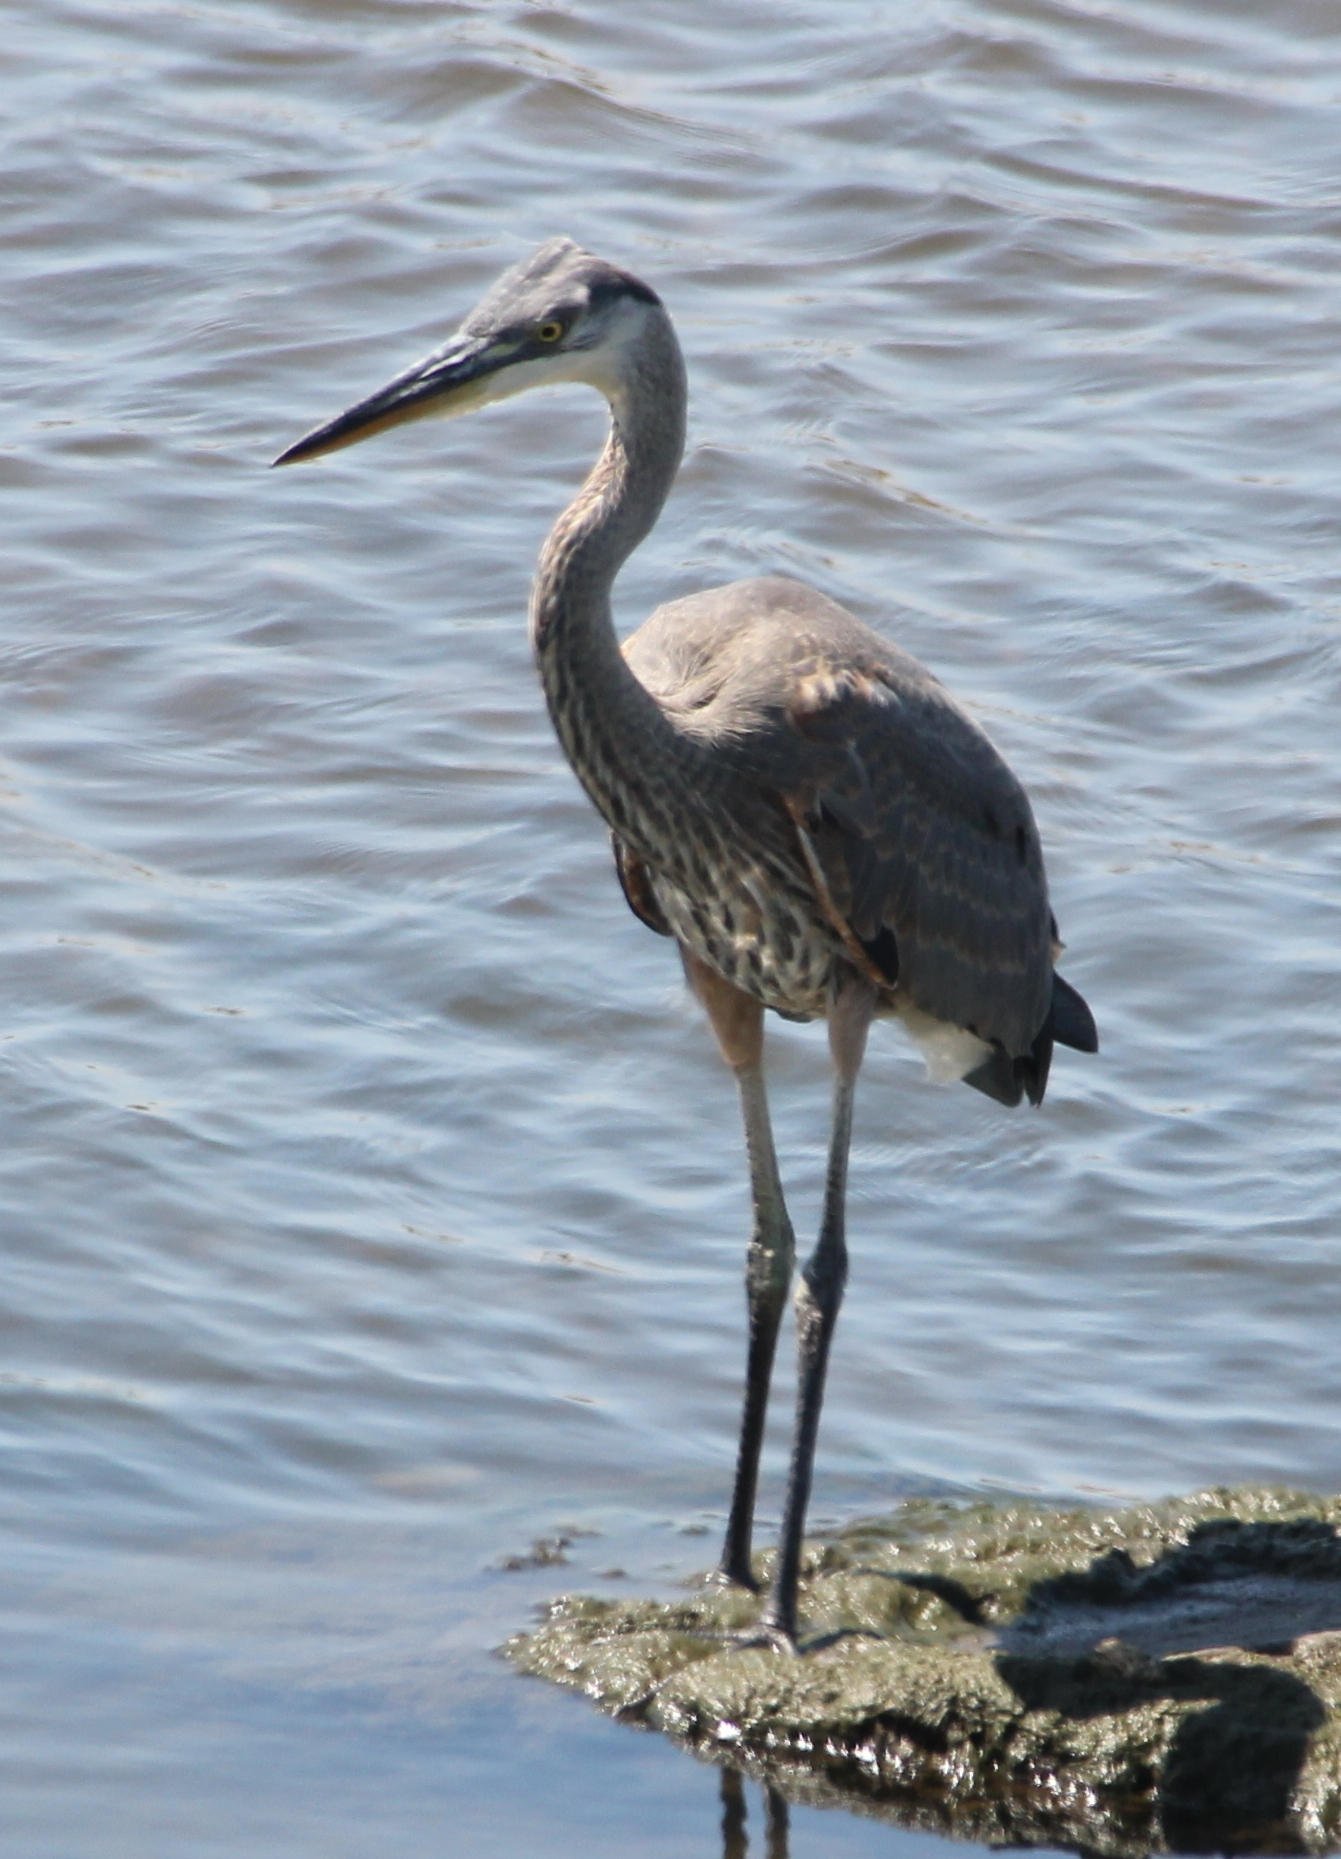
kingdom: Animalia
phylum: Chordata
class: Aves
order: Pelecaniformes
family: Ardeidae
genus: Ardea
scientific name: Ardea herodias
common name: Great blue heron
